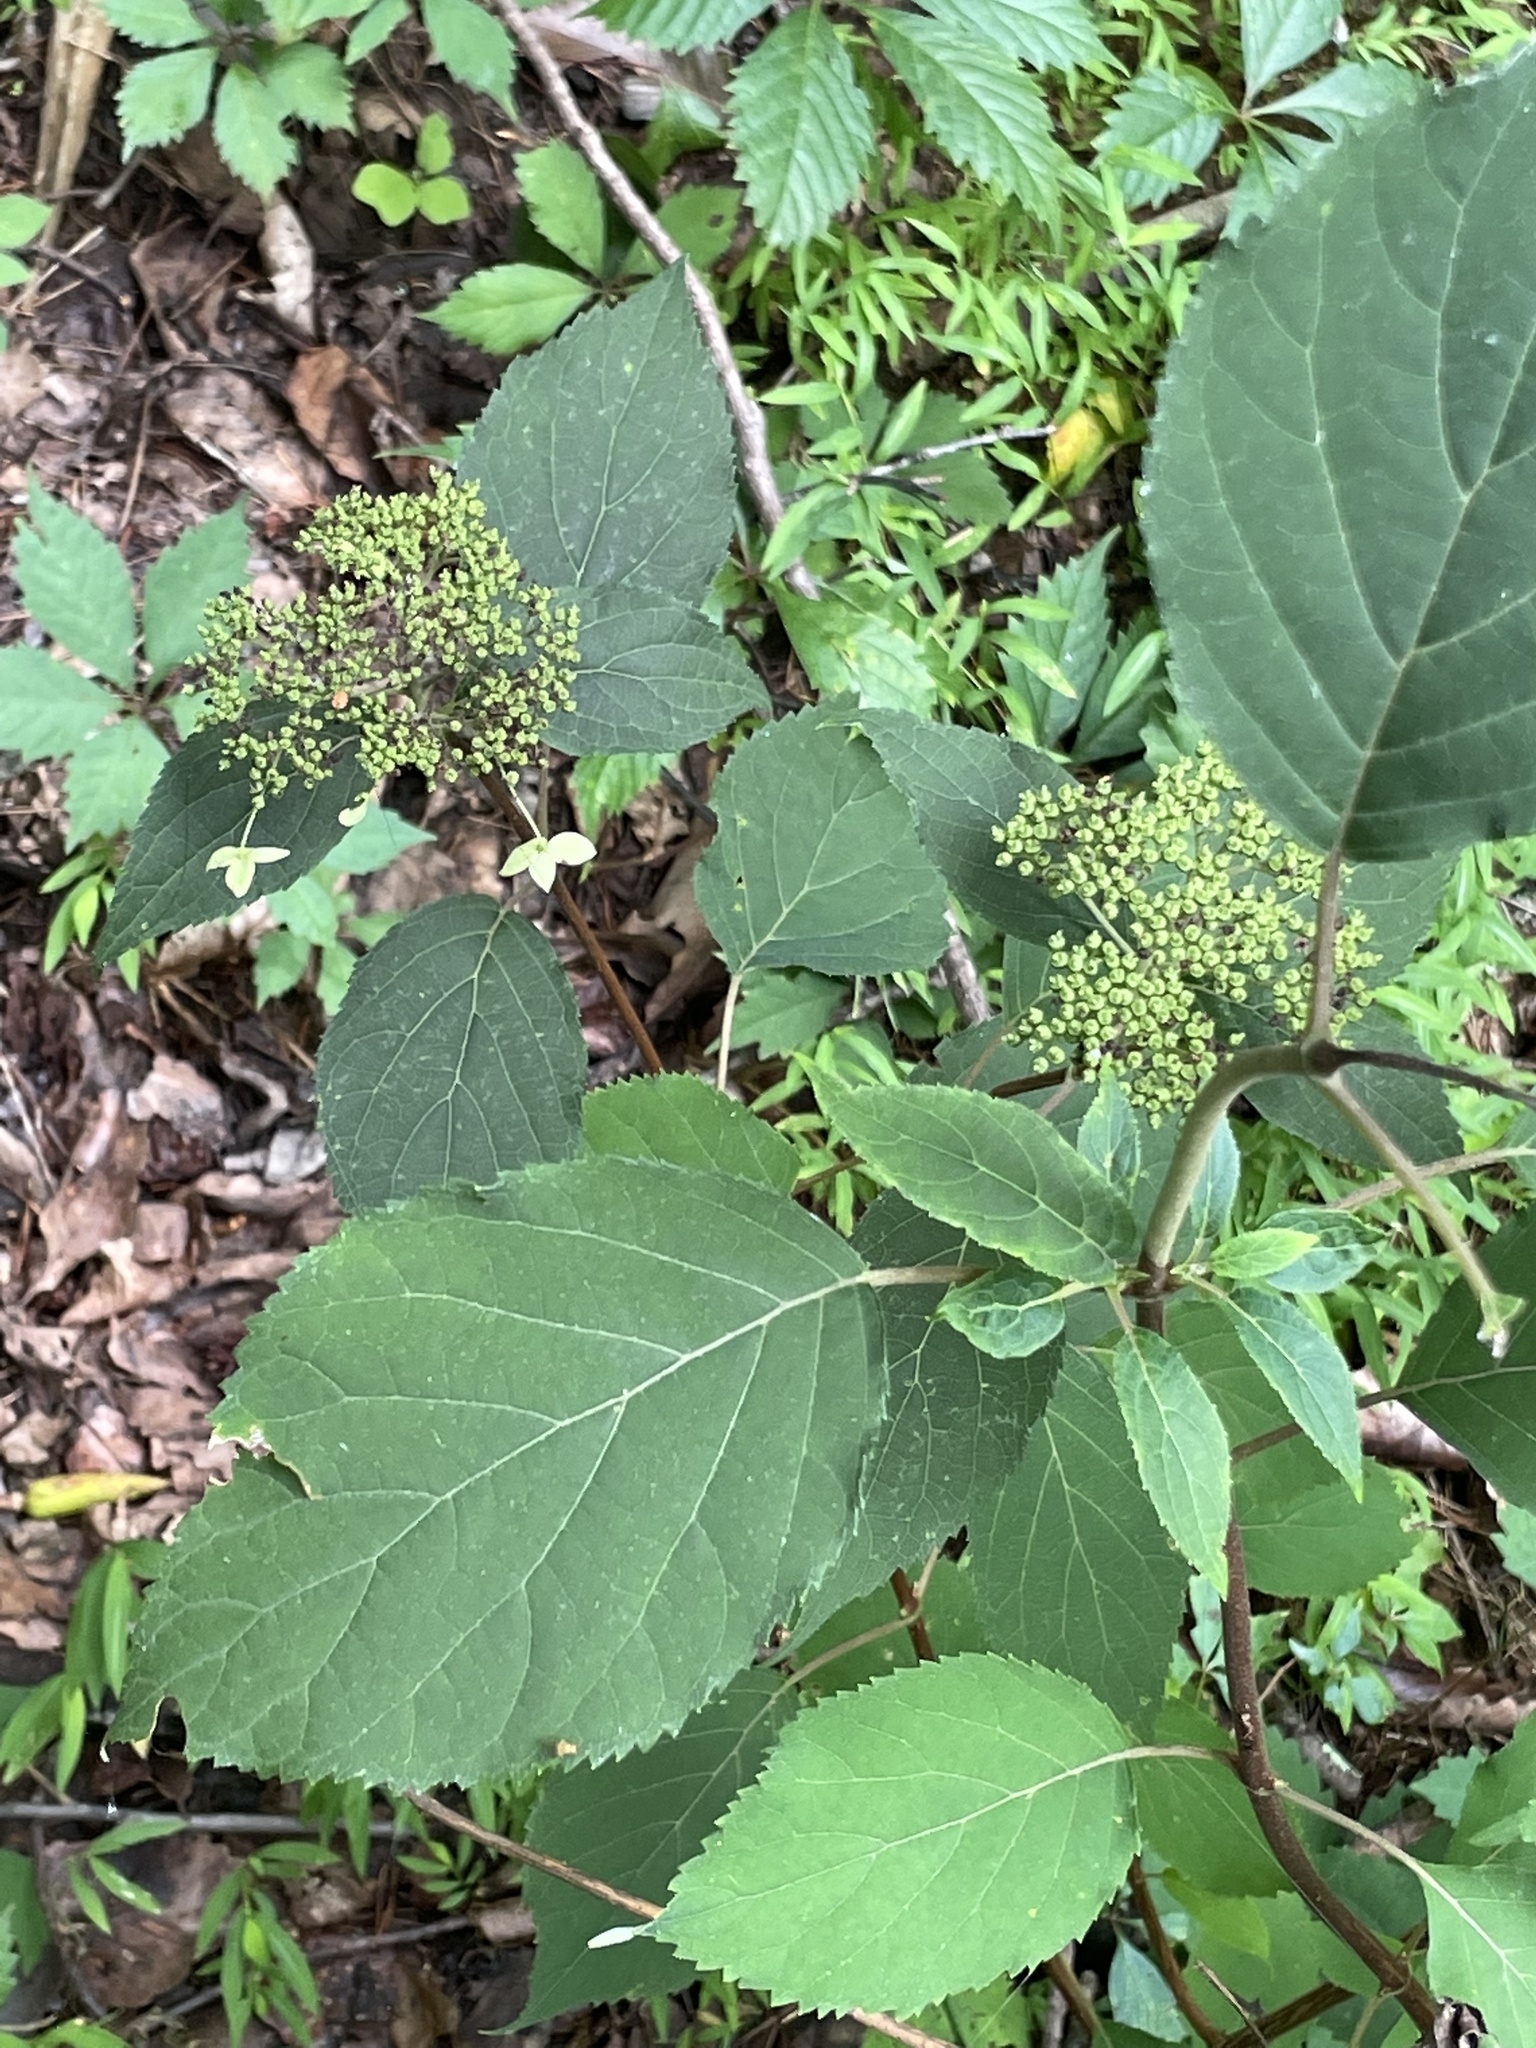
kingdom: Plantae
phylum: Tracheophyta
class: Magnoliopsida
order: Cornales
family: Hydrangeaceae
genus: Hydrangea
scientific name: Hydrangea arborescens
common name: Sevenbark
